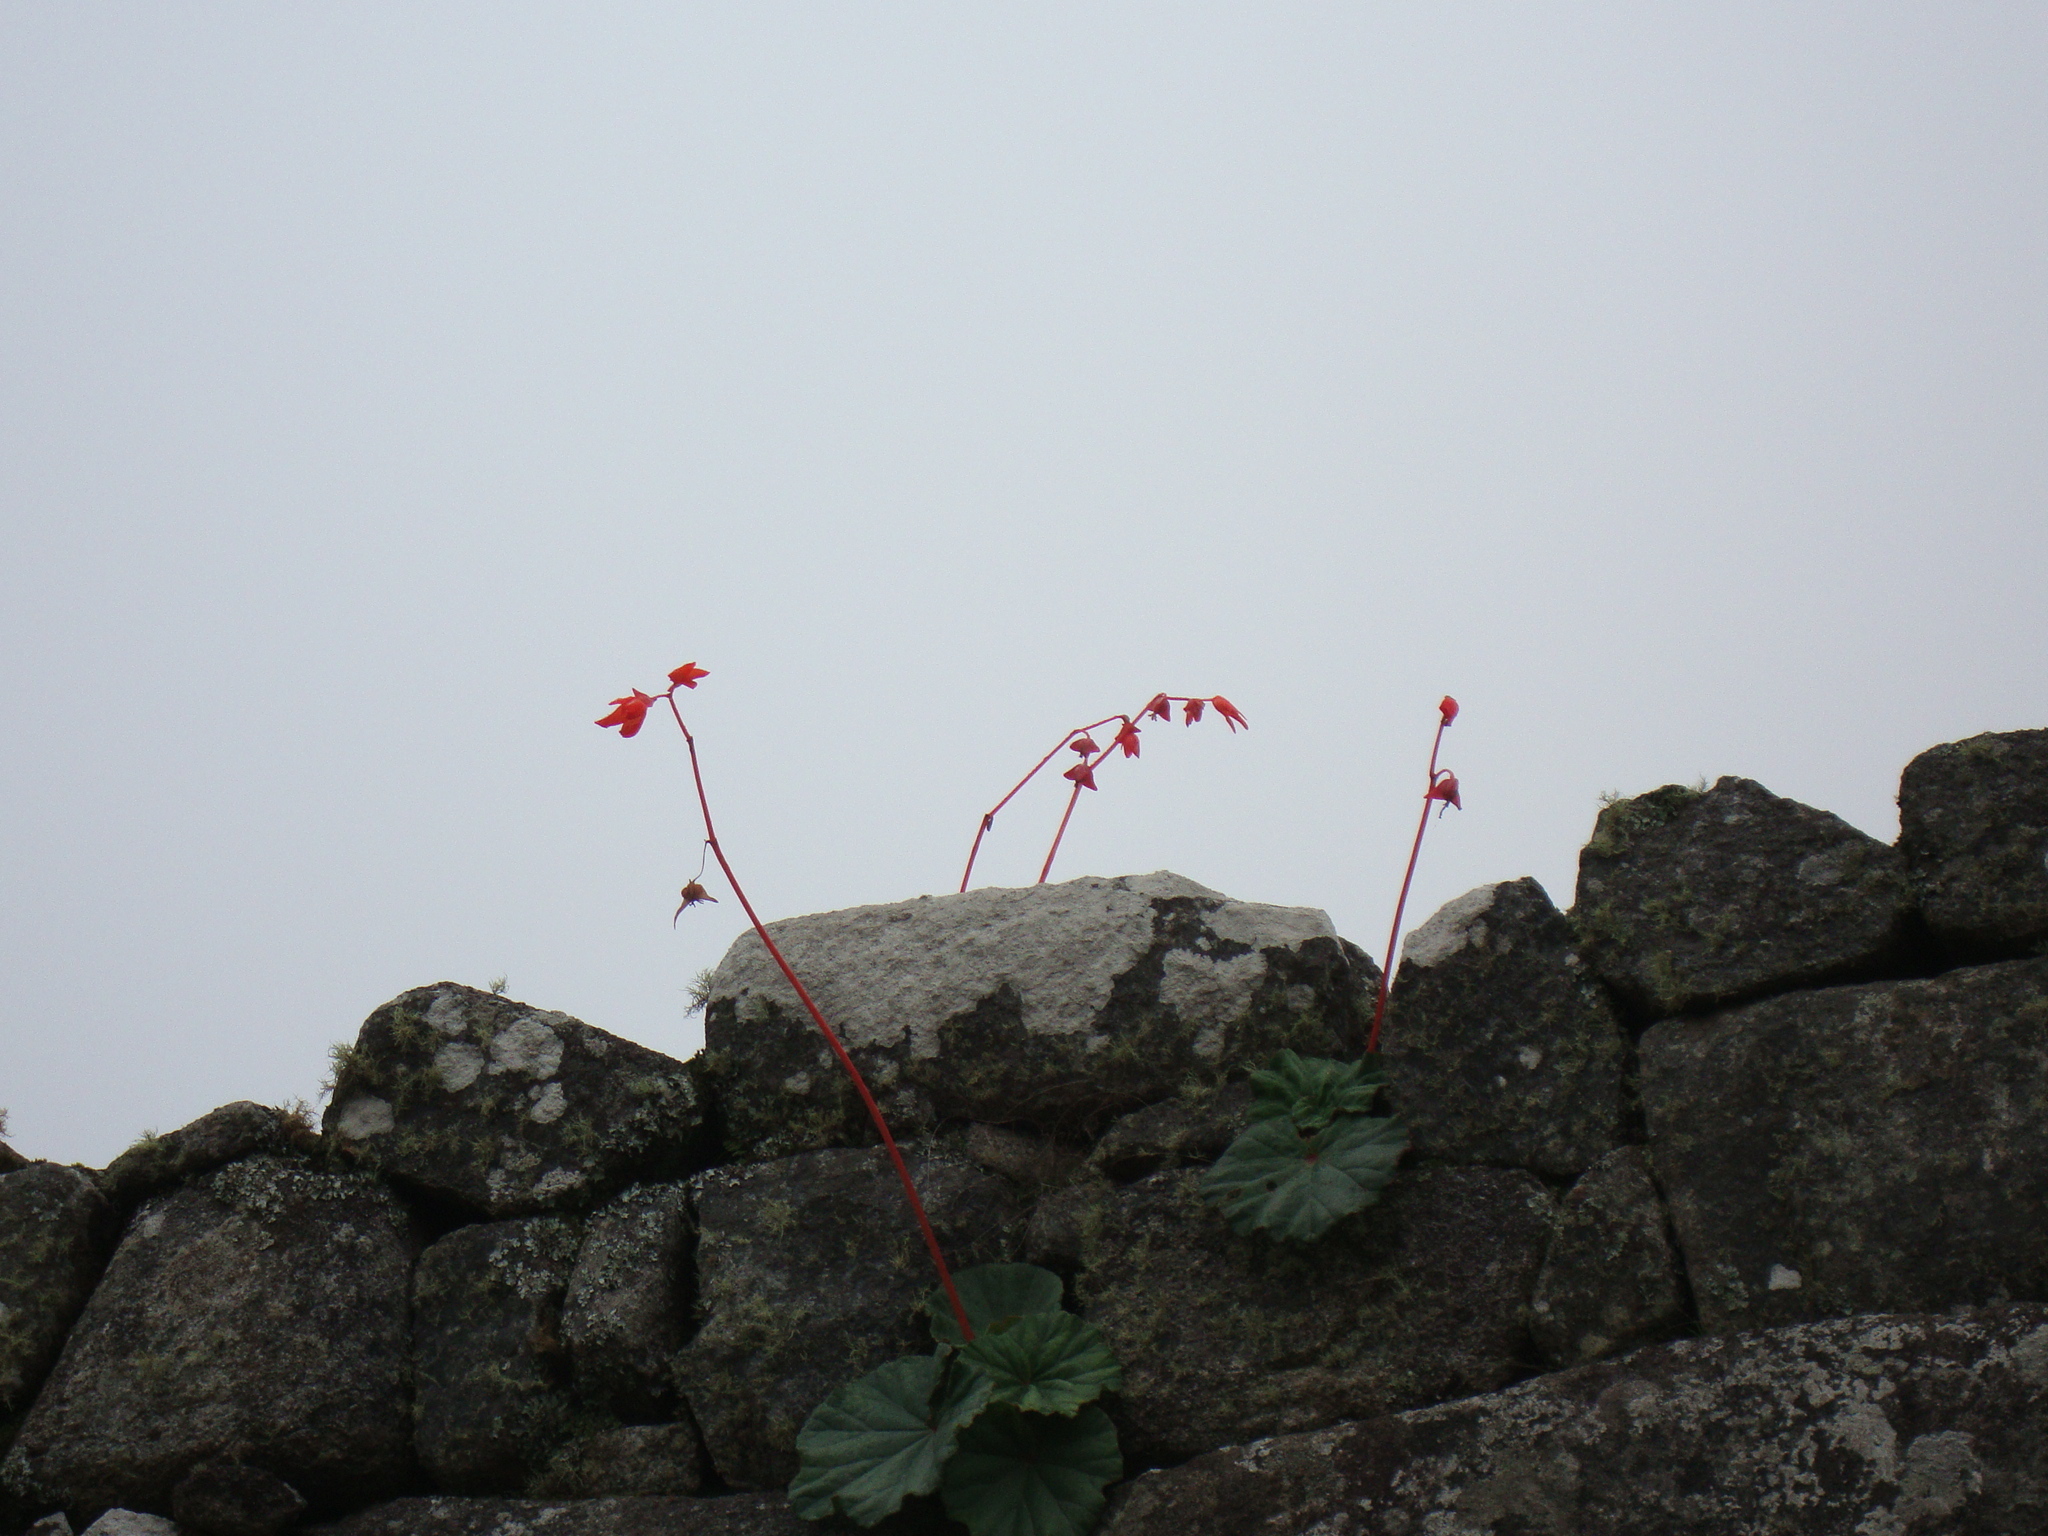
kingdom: Plantae
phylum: Tracheophyta
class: Magnoliopsida
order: Cucurbitales
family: Begoniaceae
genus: Begonia
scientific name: Begonia veitchii
